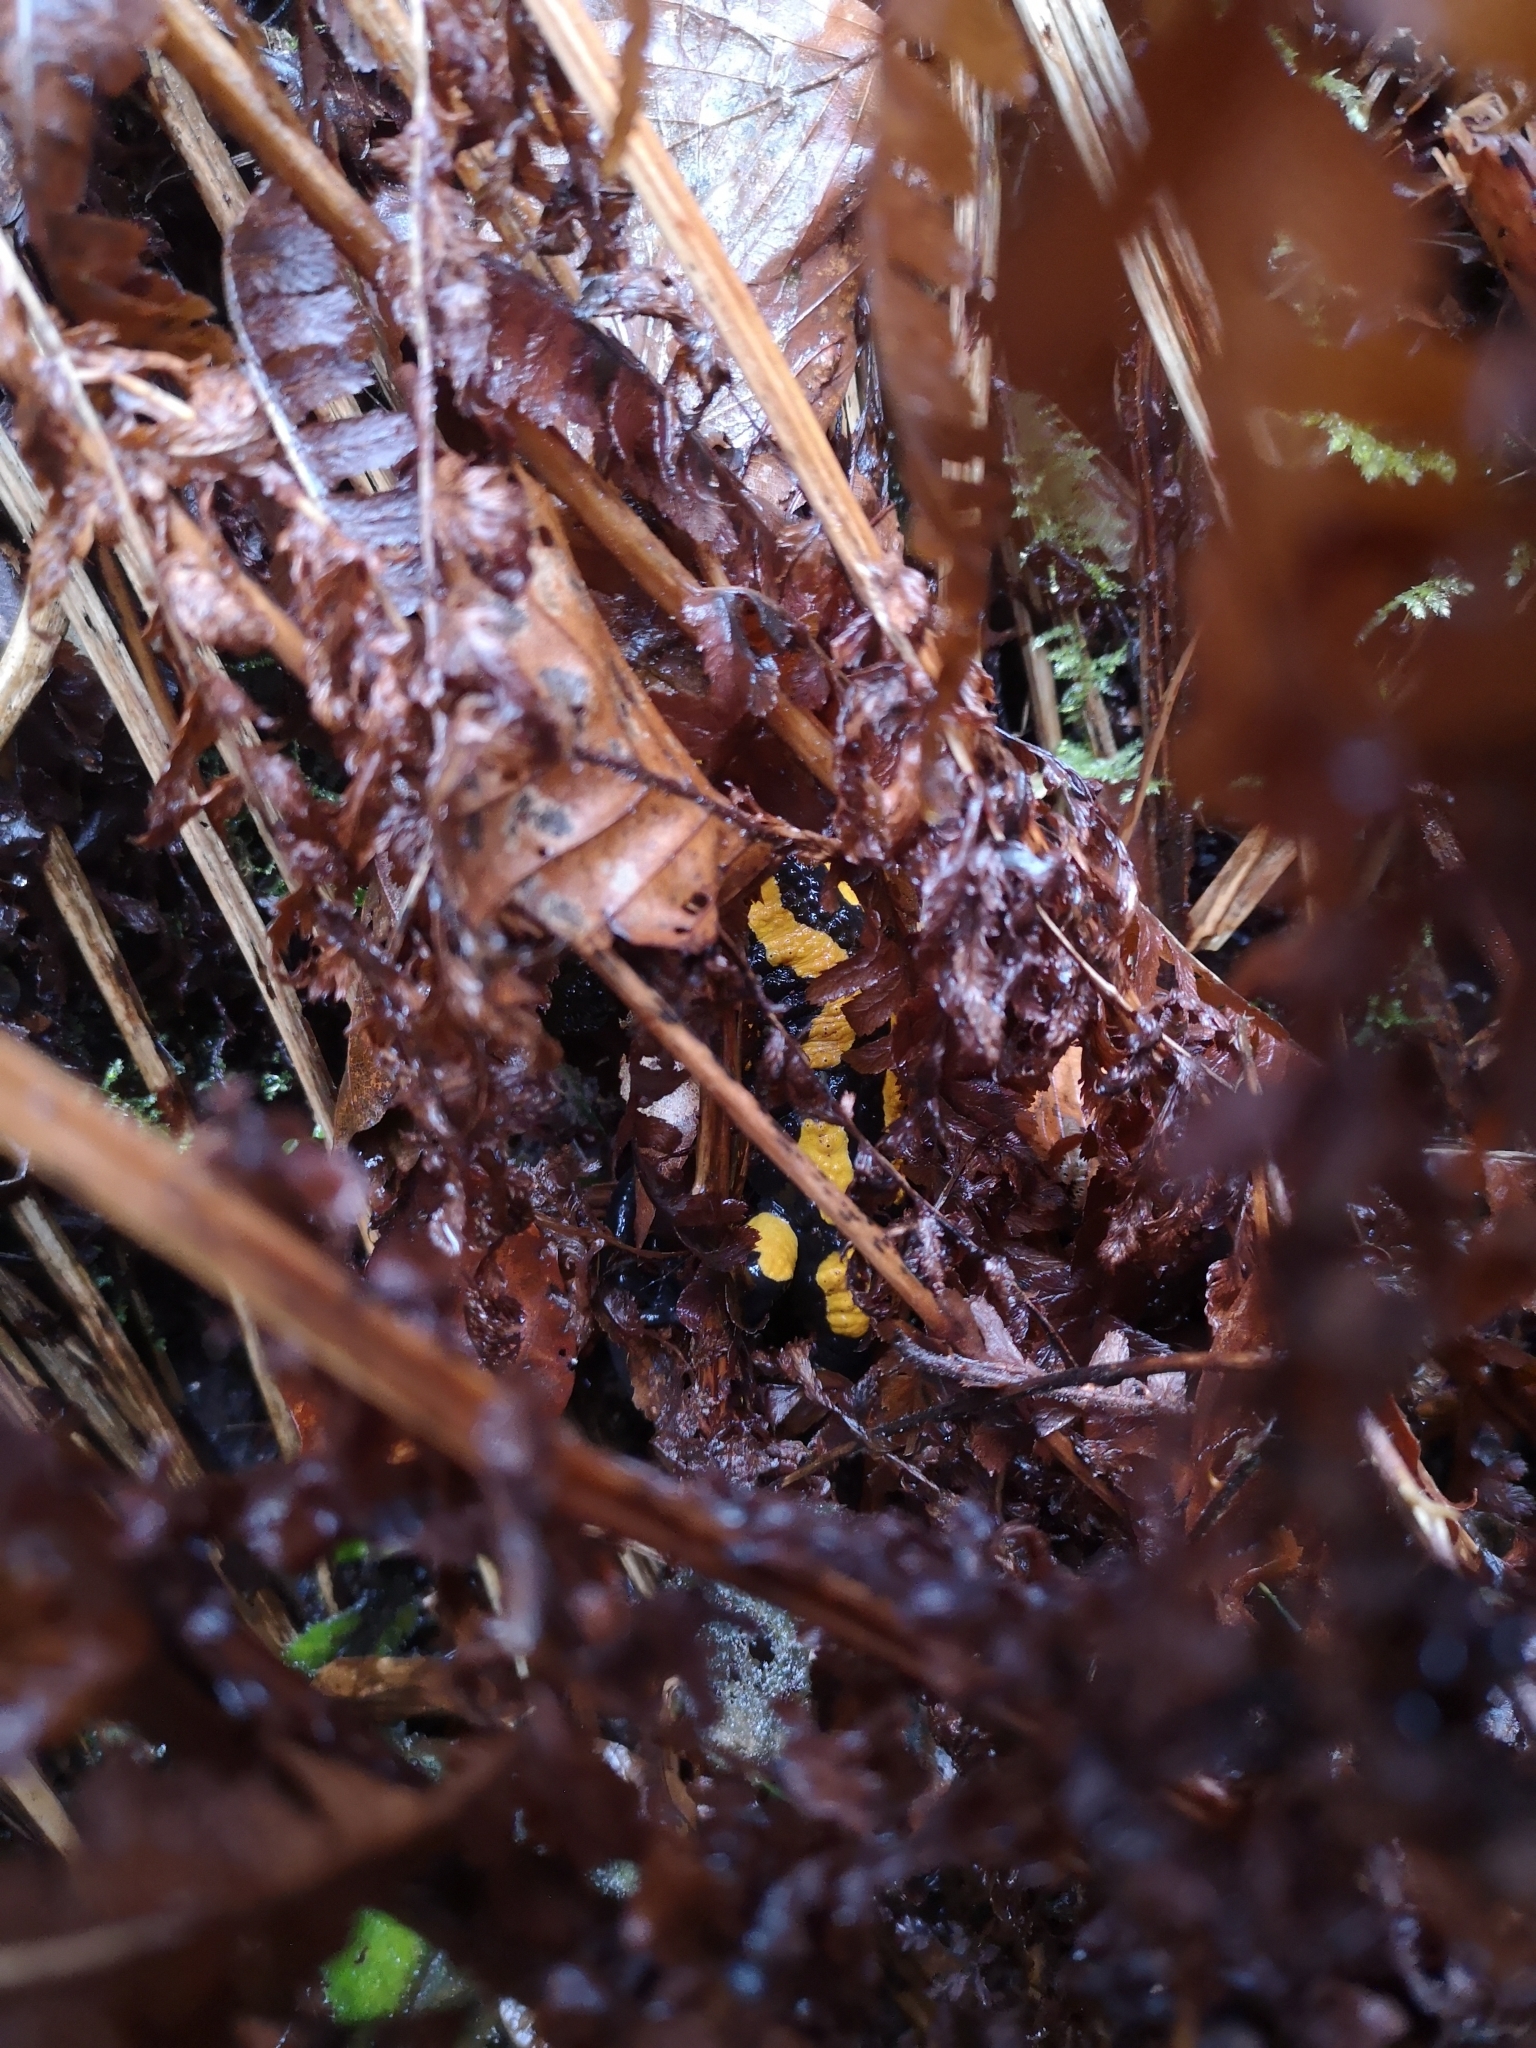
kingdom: Animalia
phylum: Chordata
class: Amphibia
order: Caudata
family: Salamandridae
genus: Salamandra
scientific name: Salamandra salamandra
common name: Fire salamander
